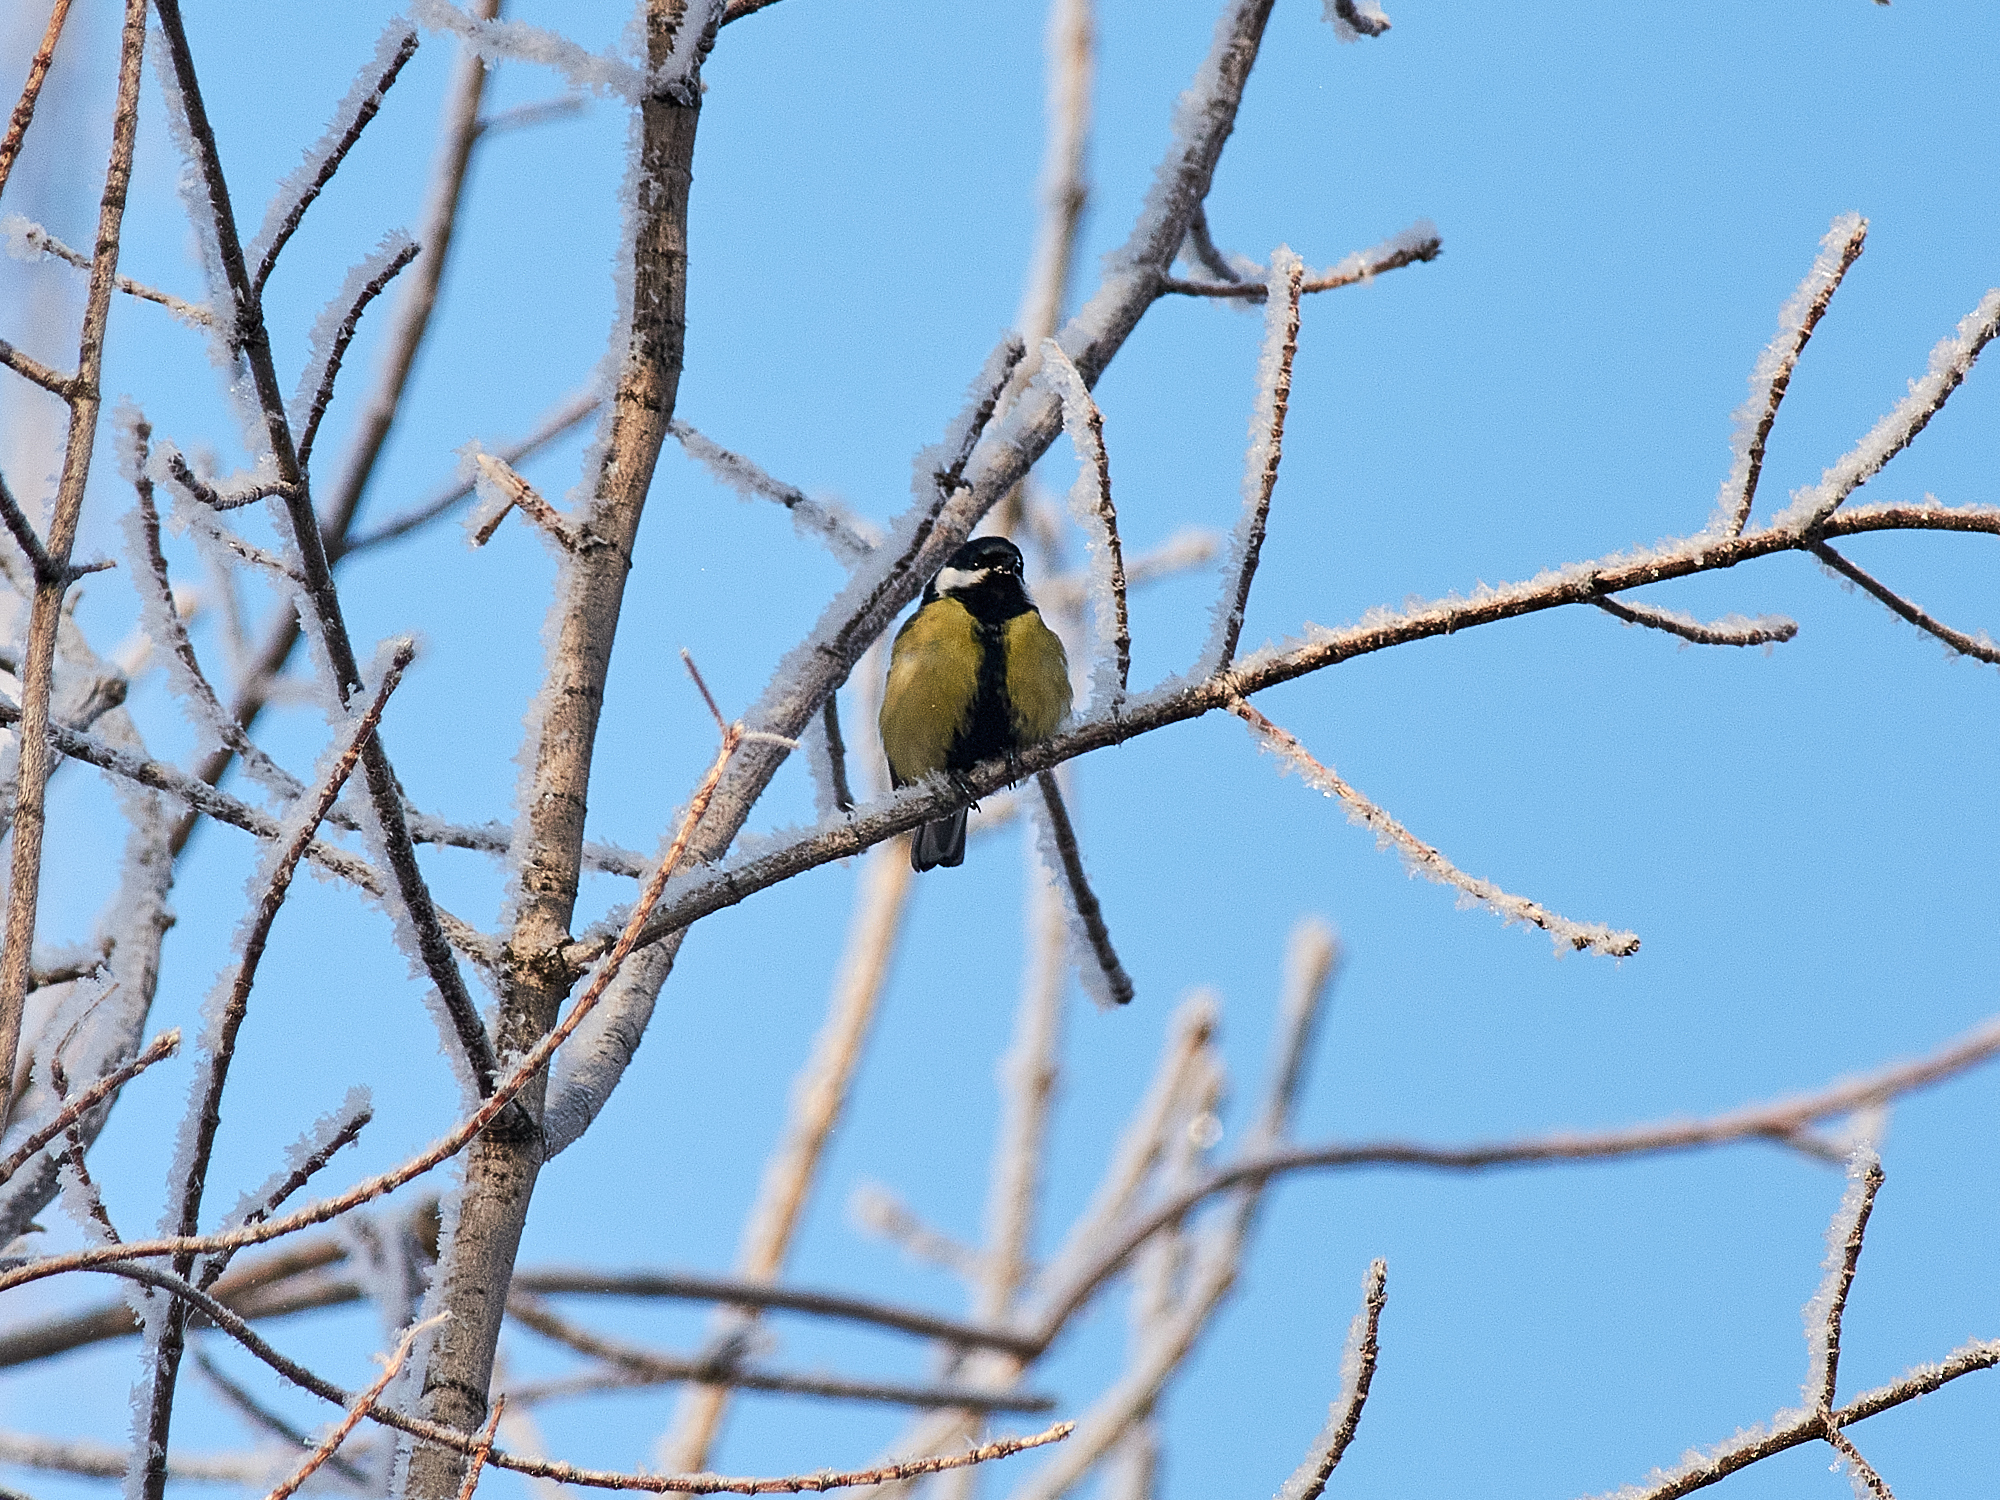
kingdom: Animalia
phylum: Chordata
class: Aves
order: Passeriformes
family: Paridae
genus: Parus
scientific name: Parus major
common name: Great tit
